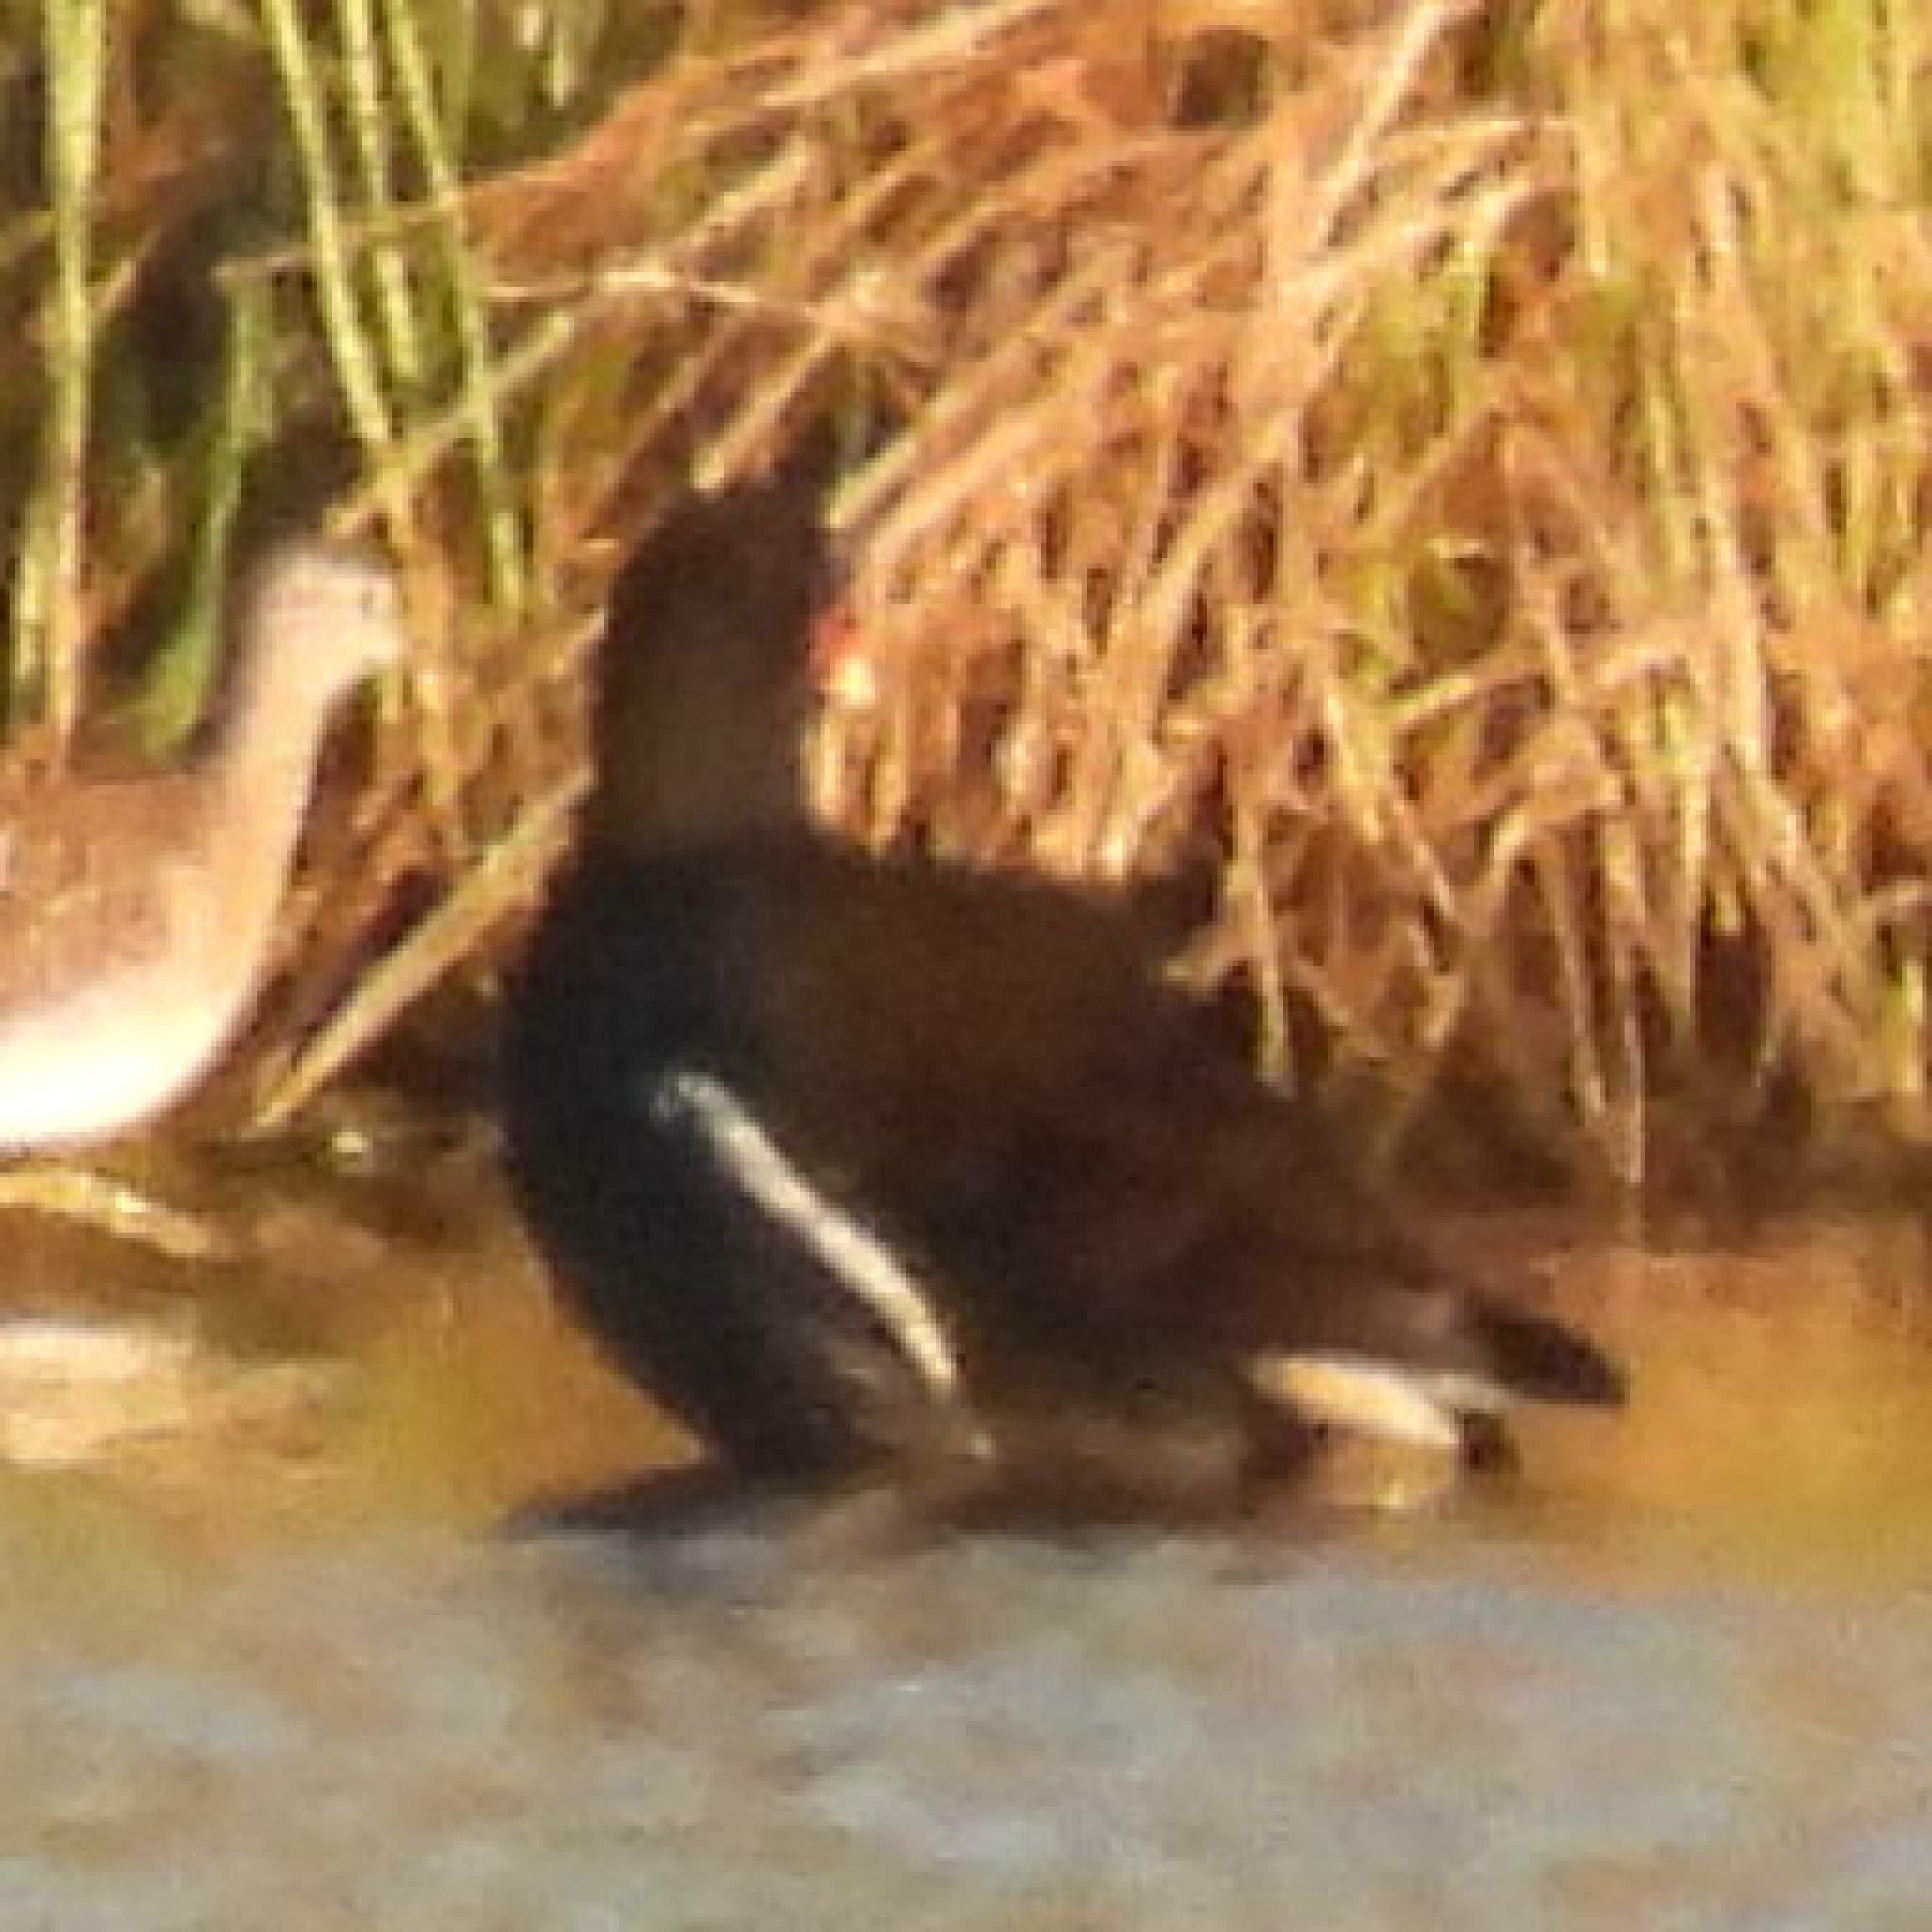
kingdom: Animalia
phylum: Chordata
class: Aves
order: Gruiformes
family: Rallidae
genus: Gallinula
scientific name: Gallinula chloropus
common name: Common moorhen
